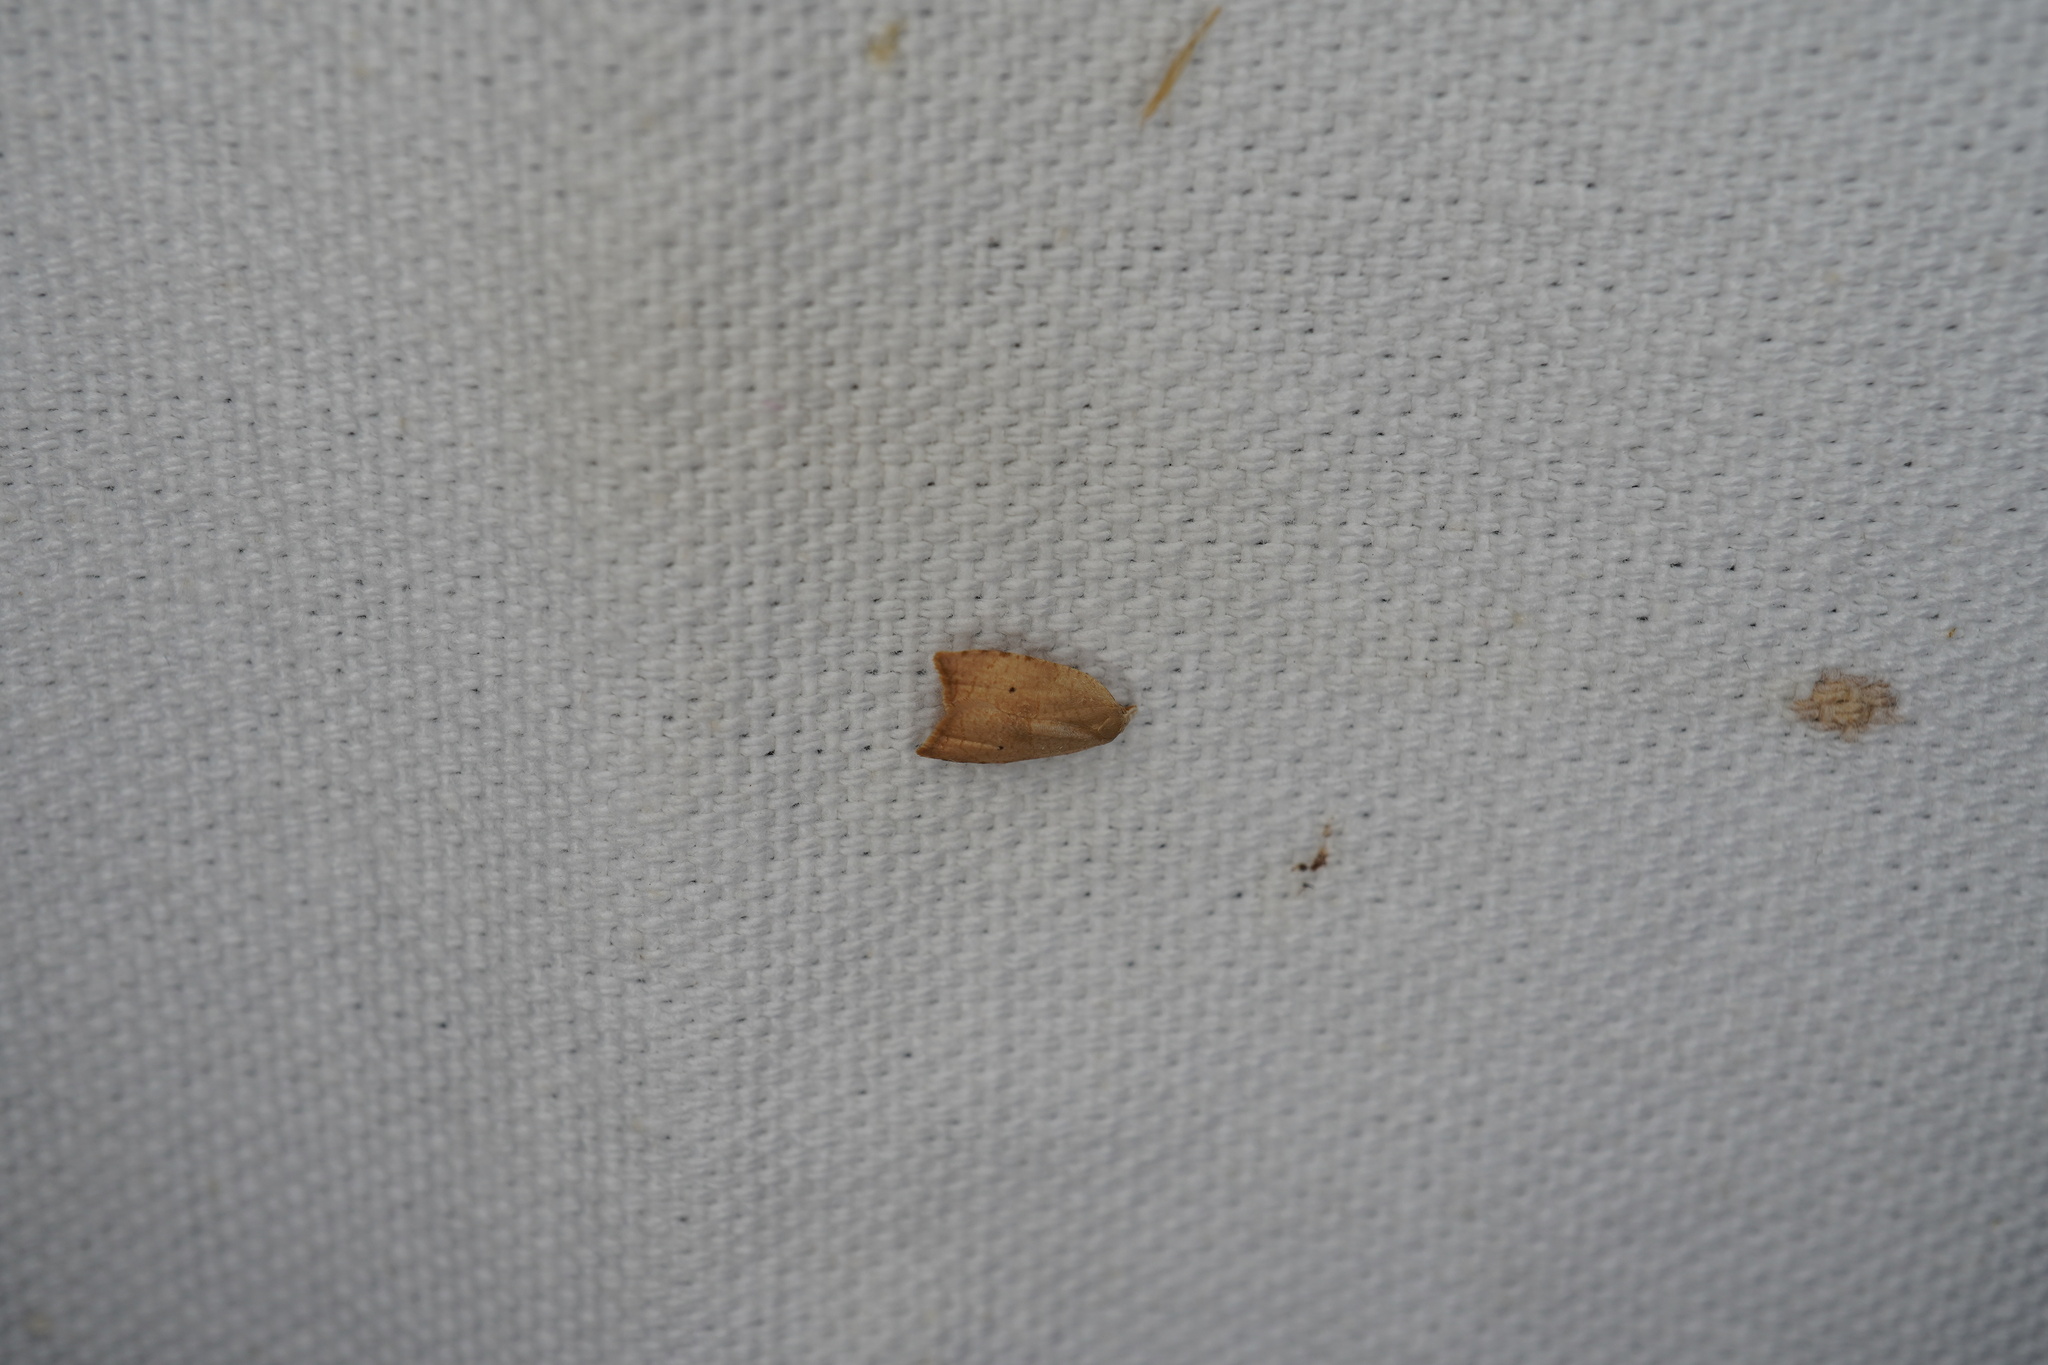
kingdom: Animalia
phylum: Arthropoda
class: Insecta
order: Lepidoptera
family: Tortricidae
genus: Coelostathma
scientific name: Coelostathma discopunctana
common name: Batman moth
